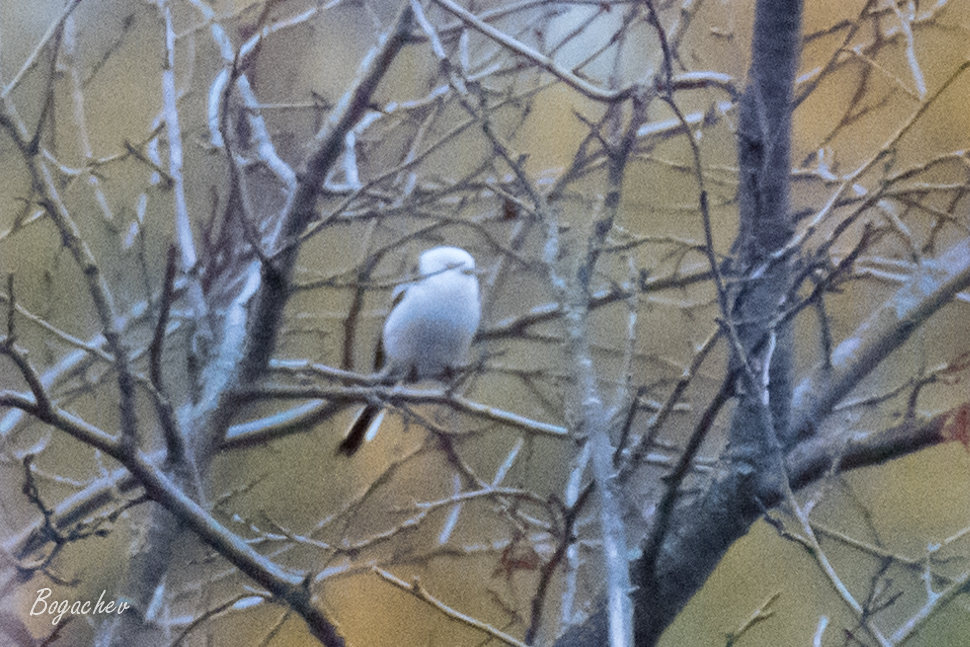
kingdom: Animalia
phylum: Chordata
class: Aves
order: Passeriformes
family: Aegithalidae
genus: Aegithalos
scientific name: Aegithalos caudatus
